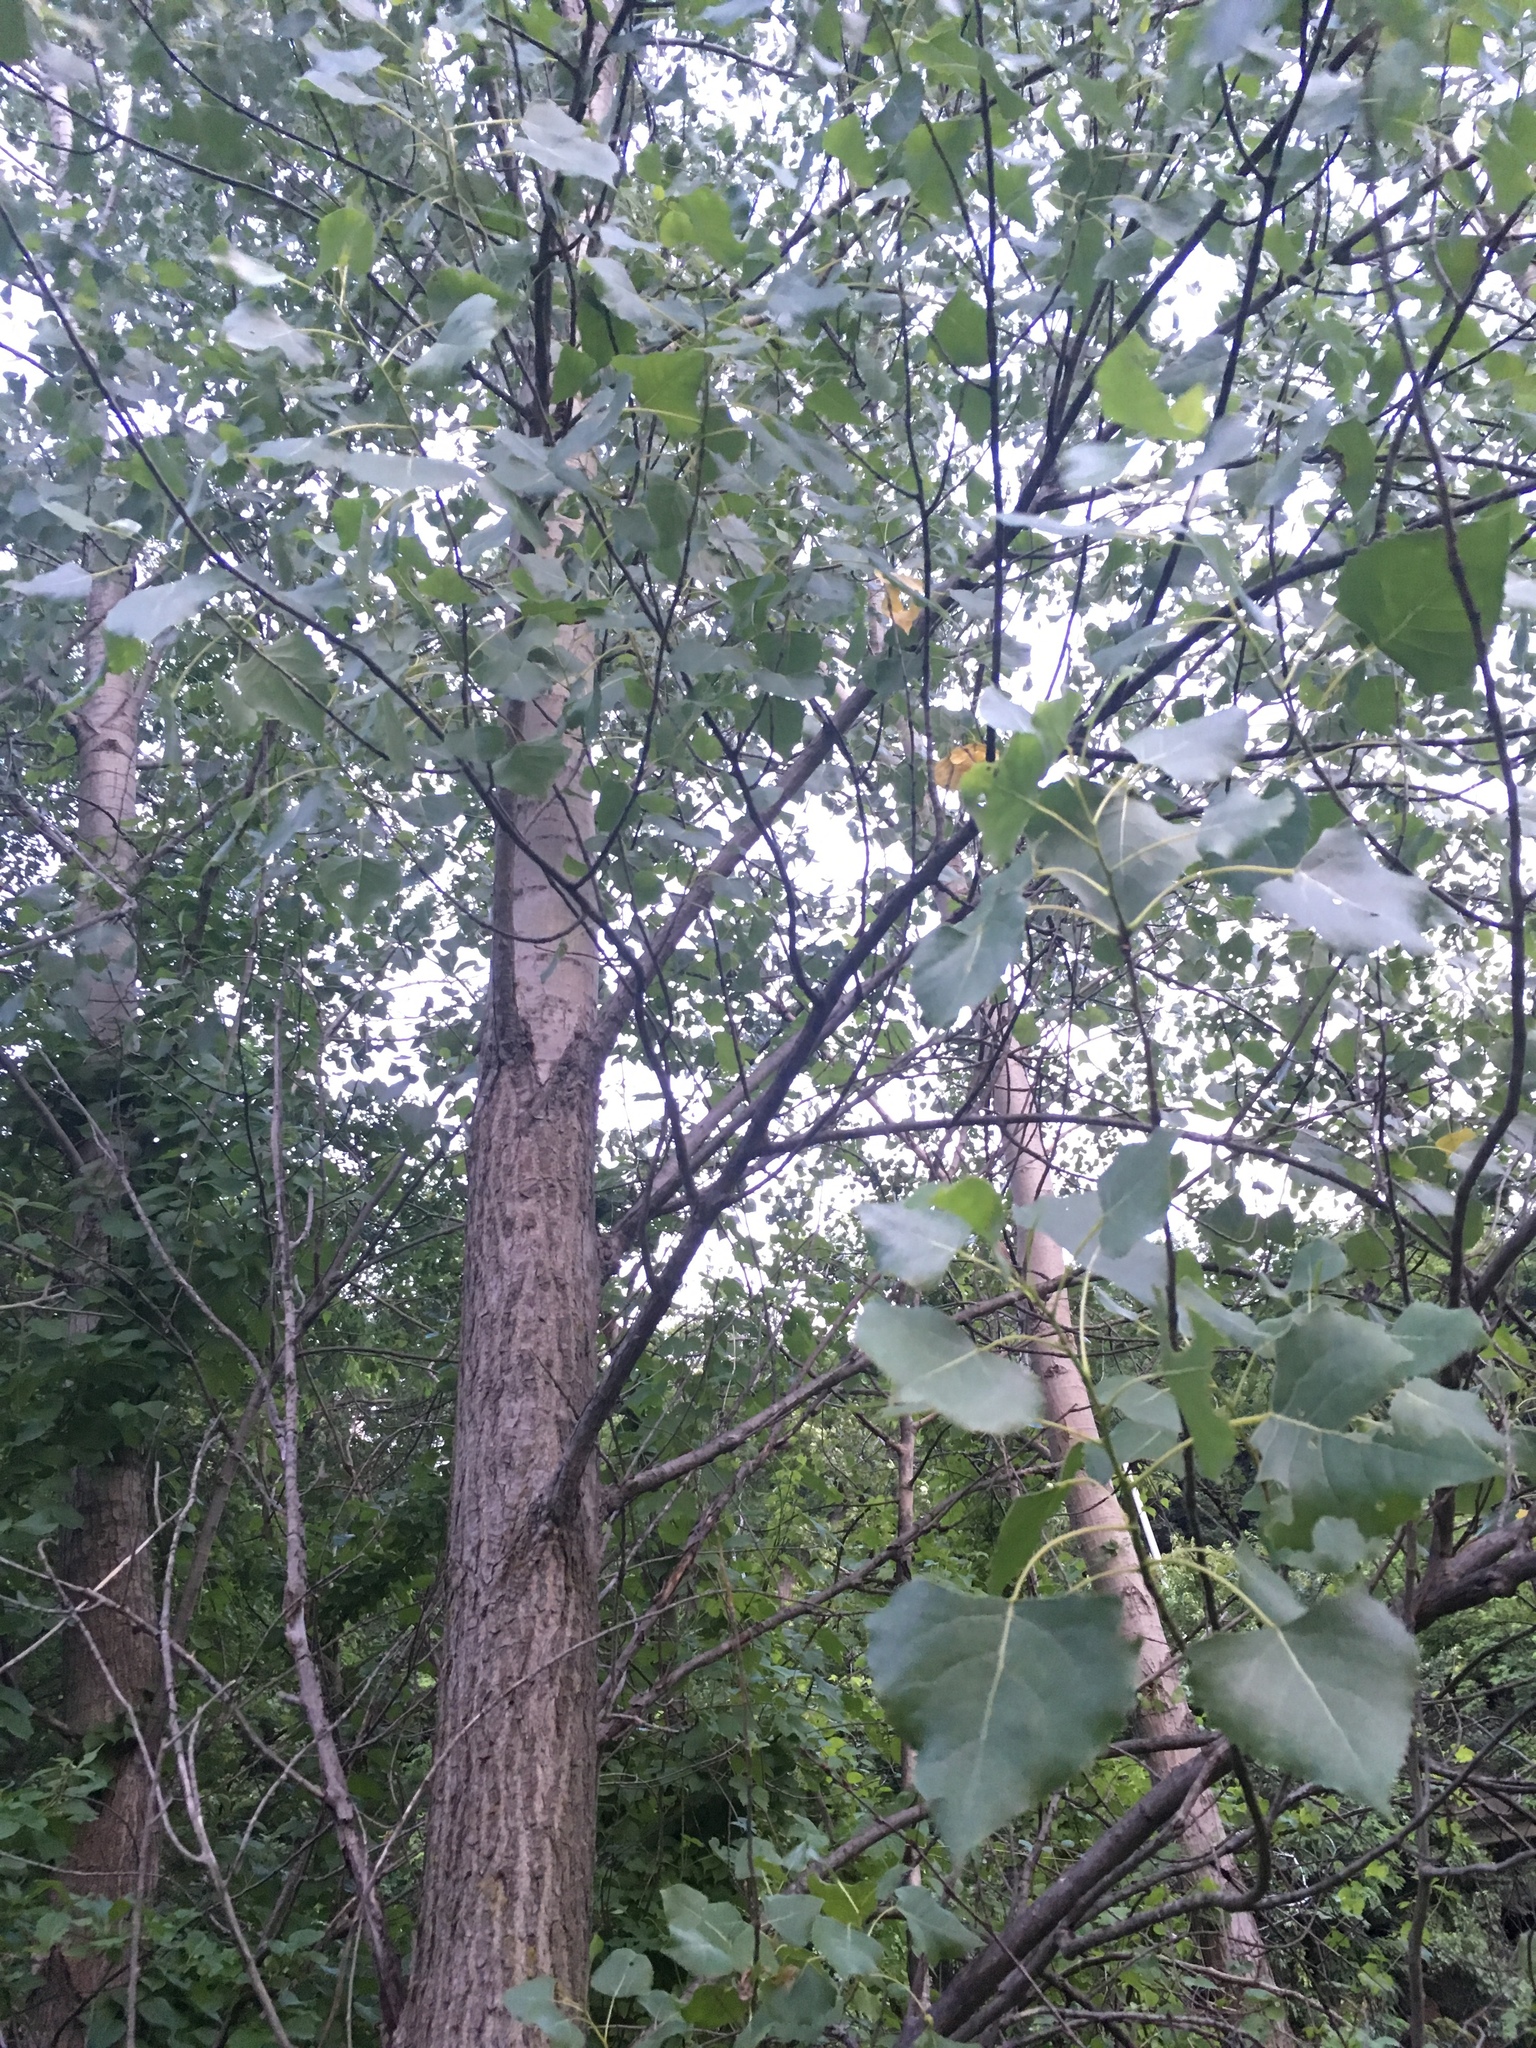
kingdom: Plantae
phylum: Tracheophyta
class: Magnoliopsida
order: Malpighiales
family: Salicaceae
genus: Populus
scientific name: Populus deltoides
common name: Eastern cottonwood
